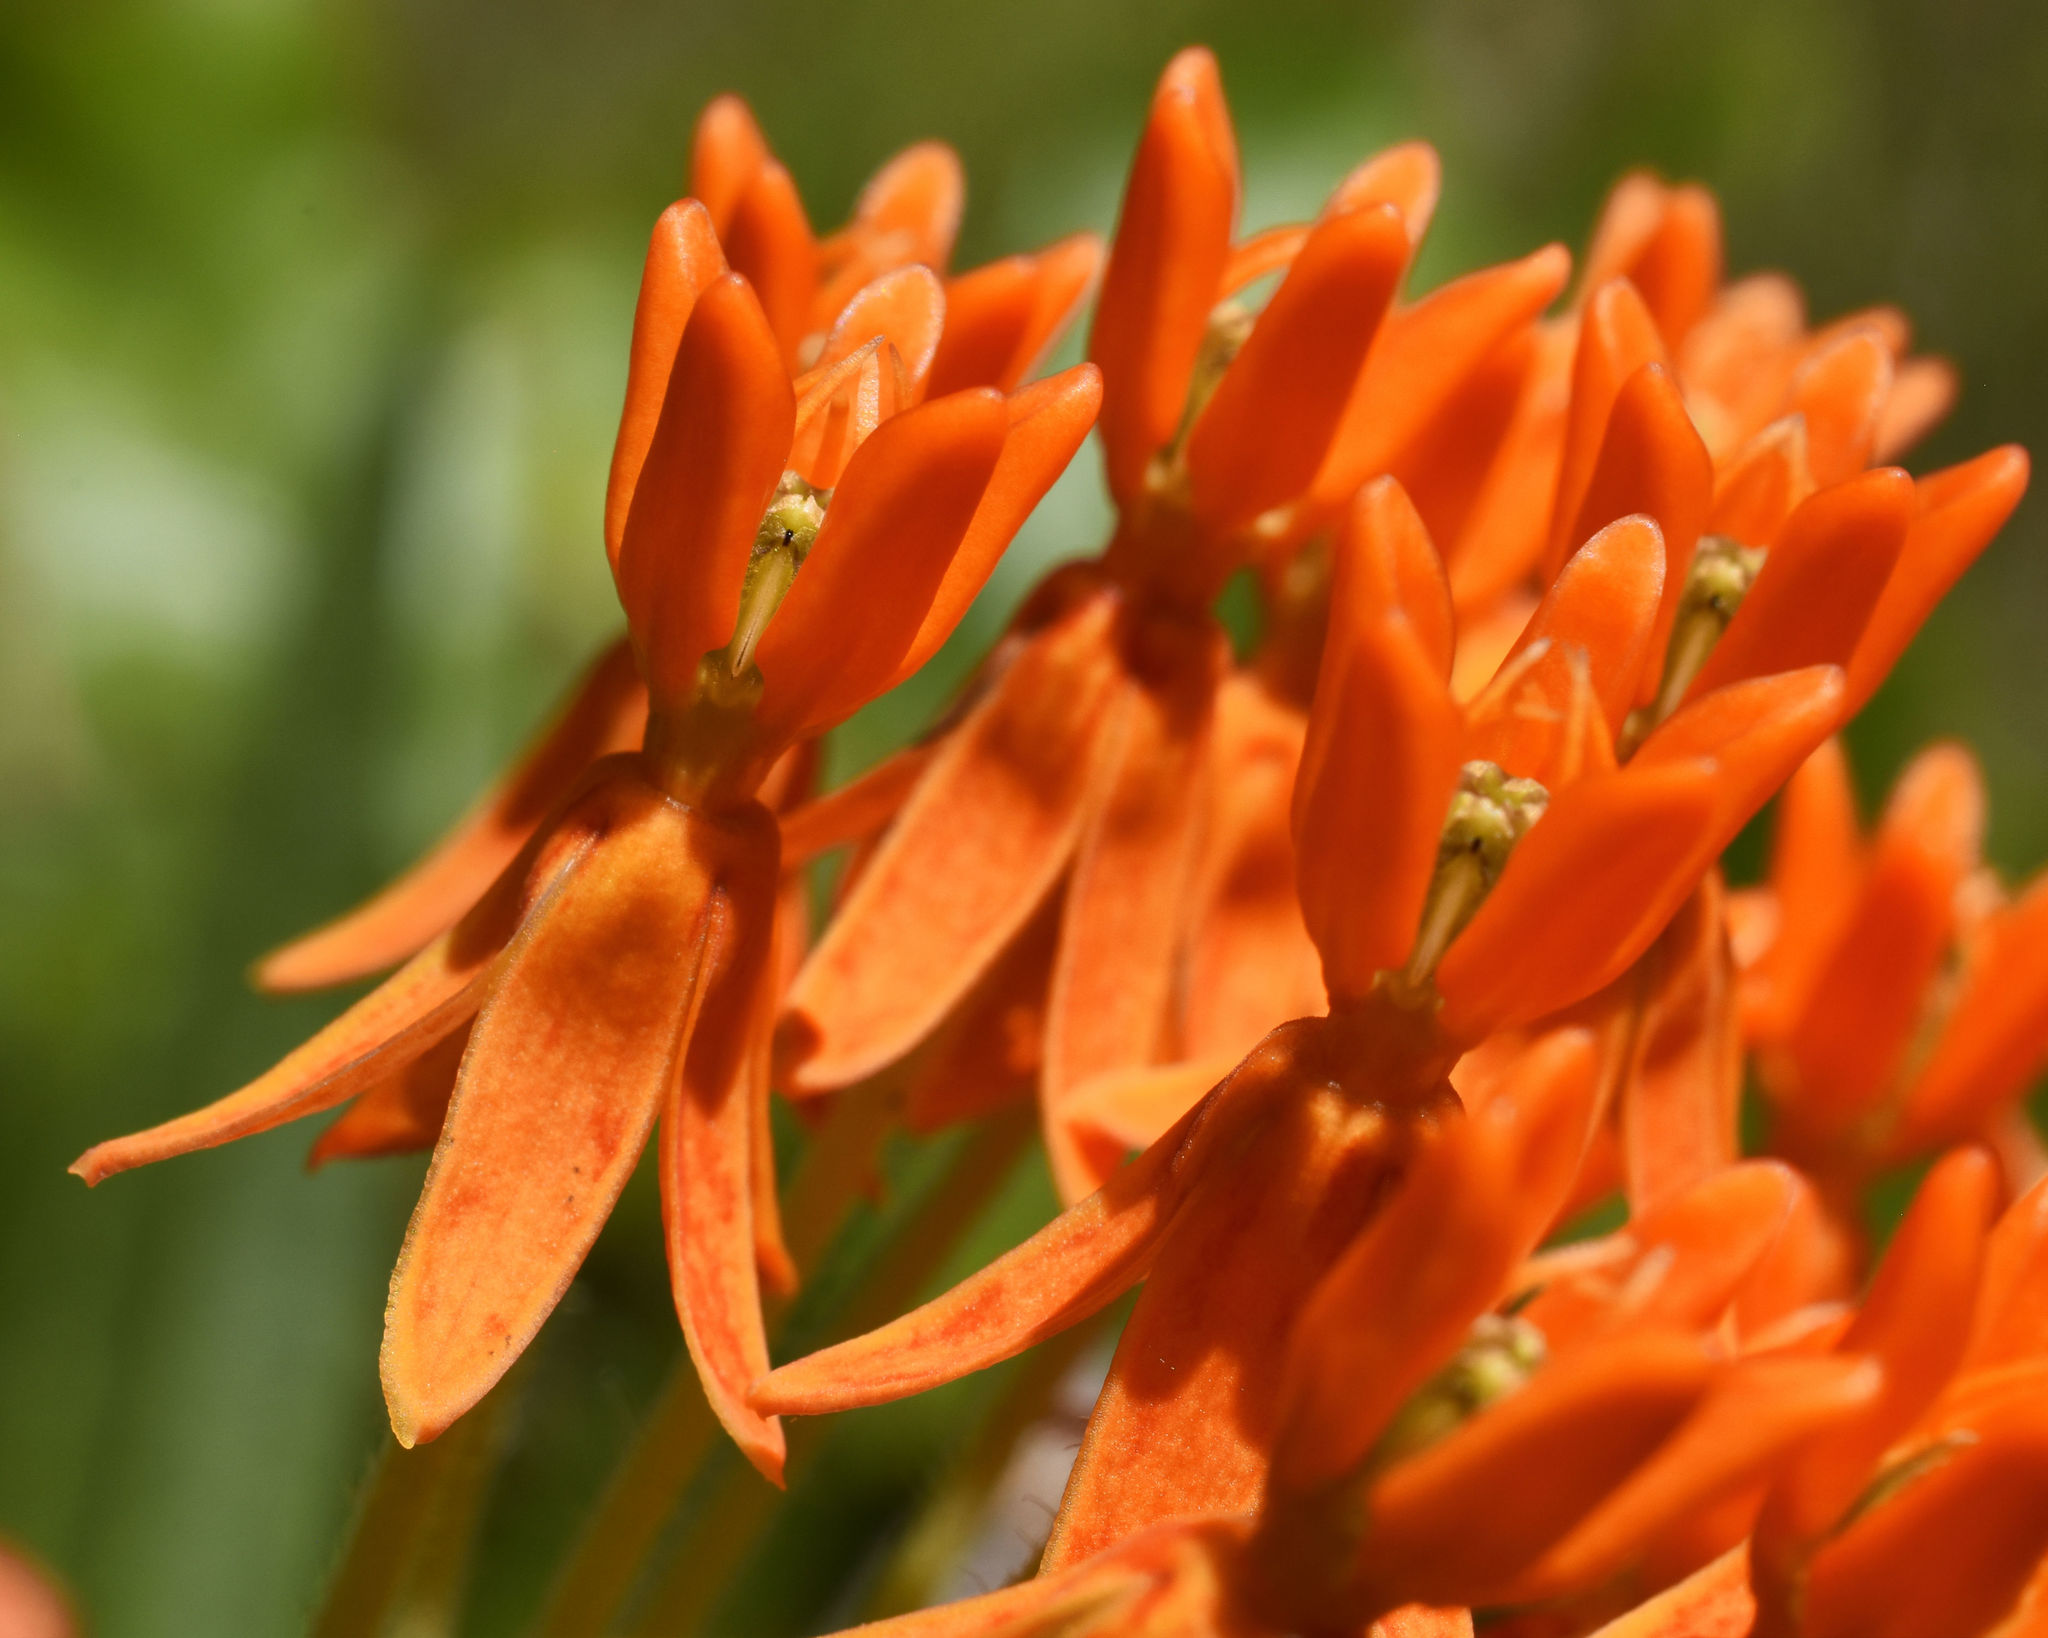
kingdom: Plantae
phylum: Tracheophyta
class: Magnoliopsida
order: Gentianales
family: Apocynaceae
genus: Asclepias
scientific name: Asclepias tuberosa
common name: Butterfly milkweed
